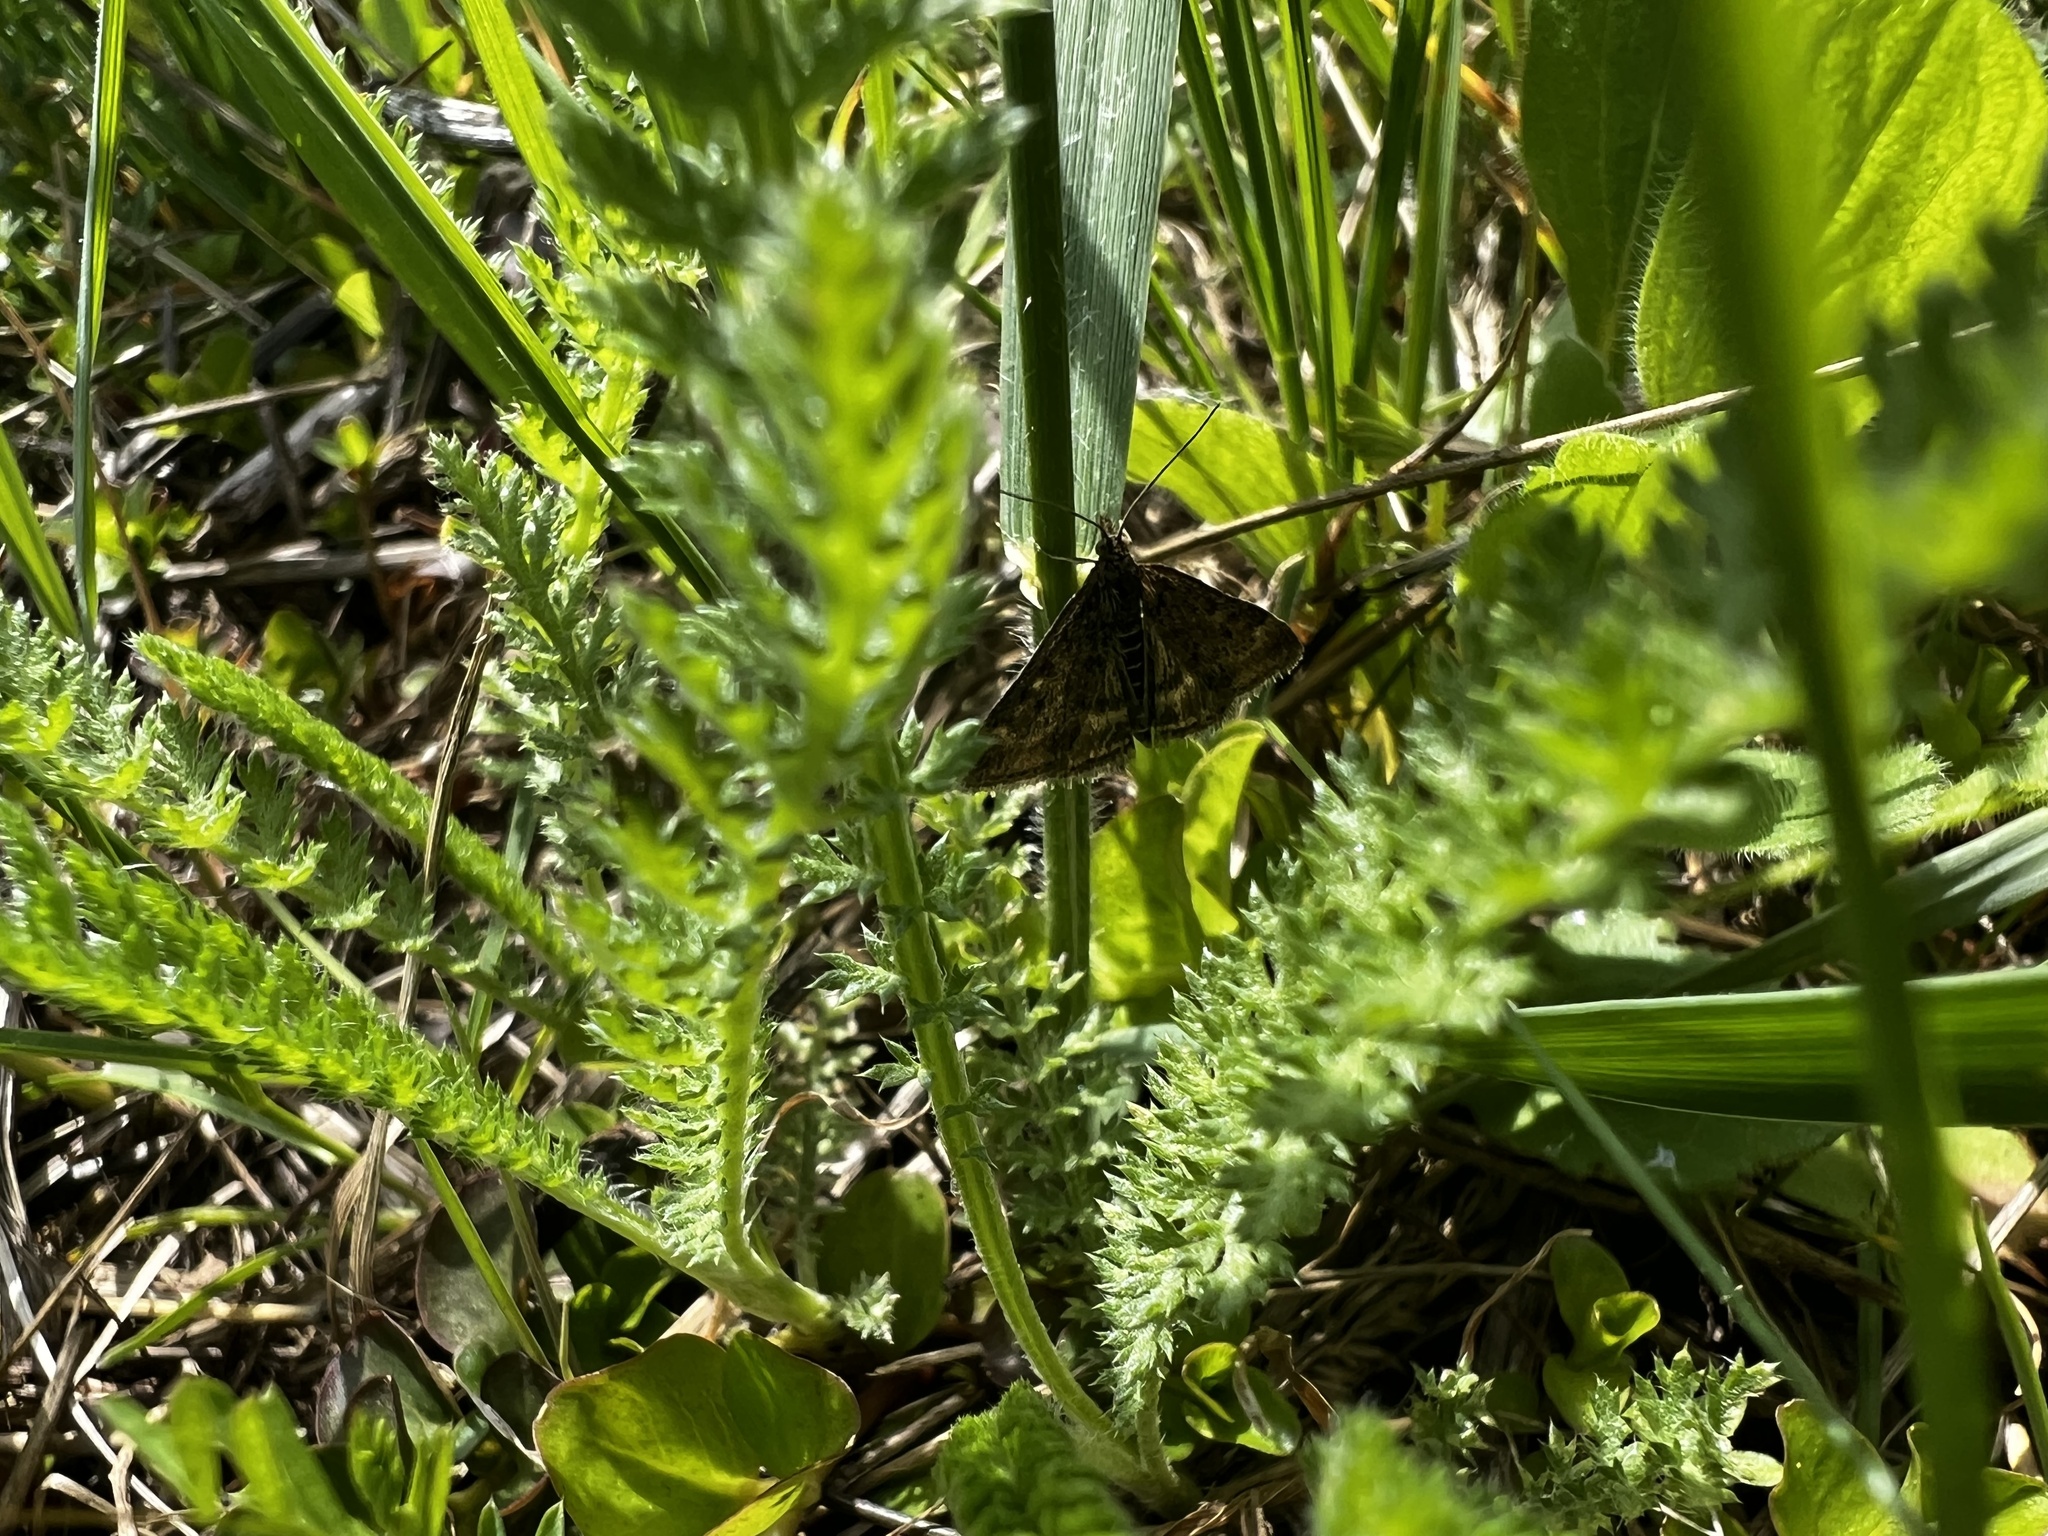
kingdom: Animalia
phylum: Arthropoda
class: Insecta
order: Lepidoptera
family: Crambidae
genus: Pyrausta
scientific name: Pyrausta despicata
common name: Straw-barred pearl
